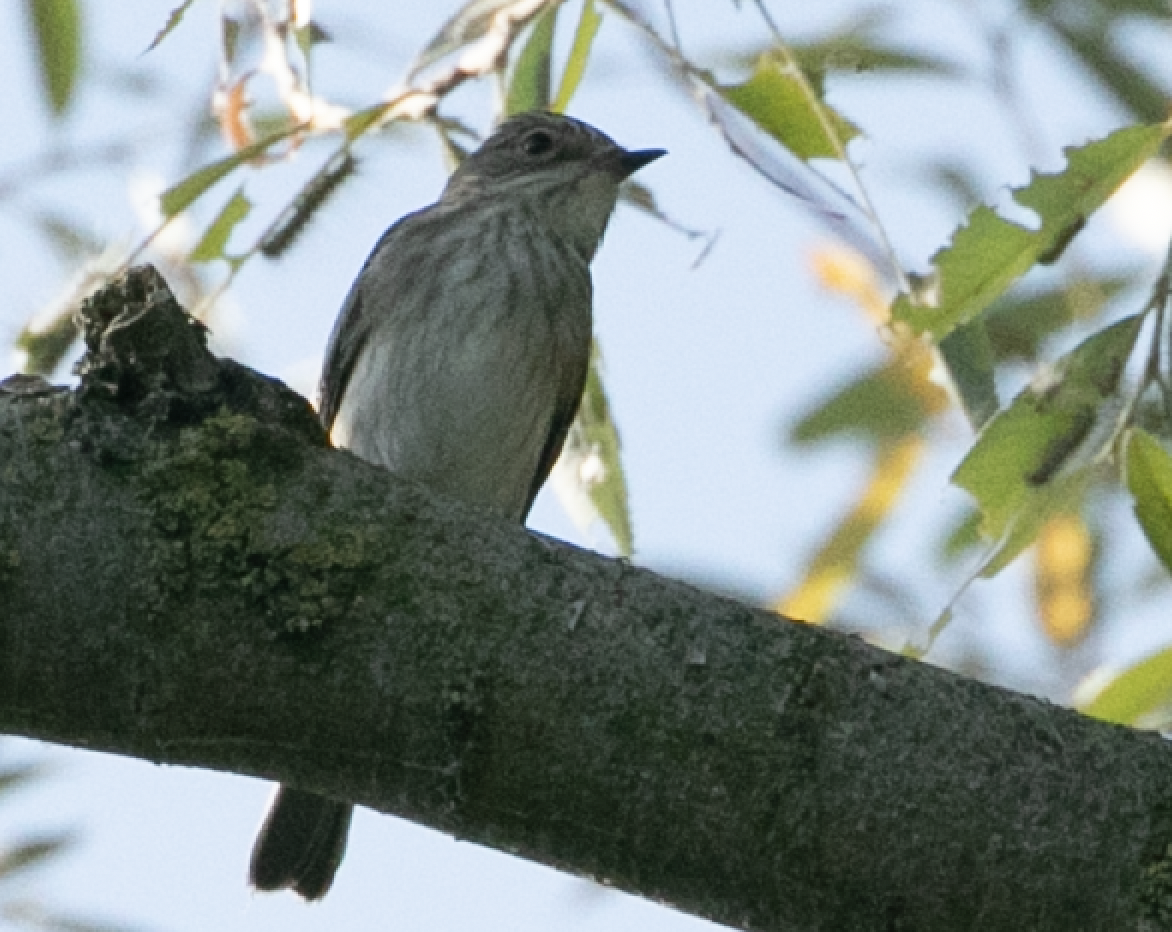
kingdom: Animalia
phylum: Chordata
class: Aves
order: Passeriformes
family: Muscicapidae
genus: Muscicapa
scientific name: Muscicapa striata
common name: Spotted flycatcher
